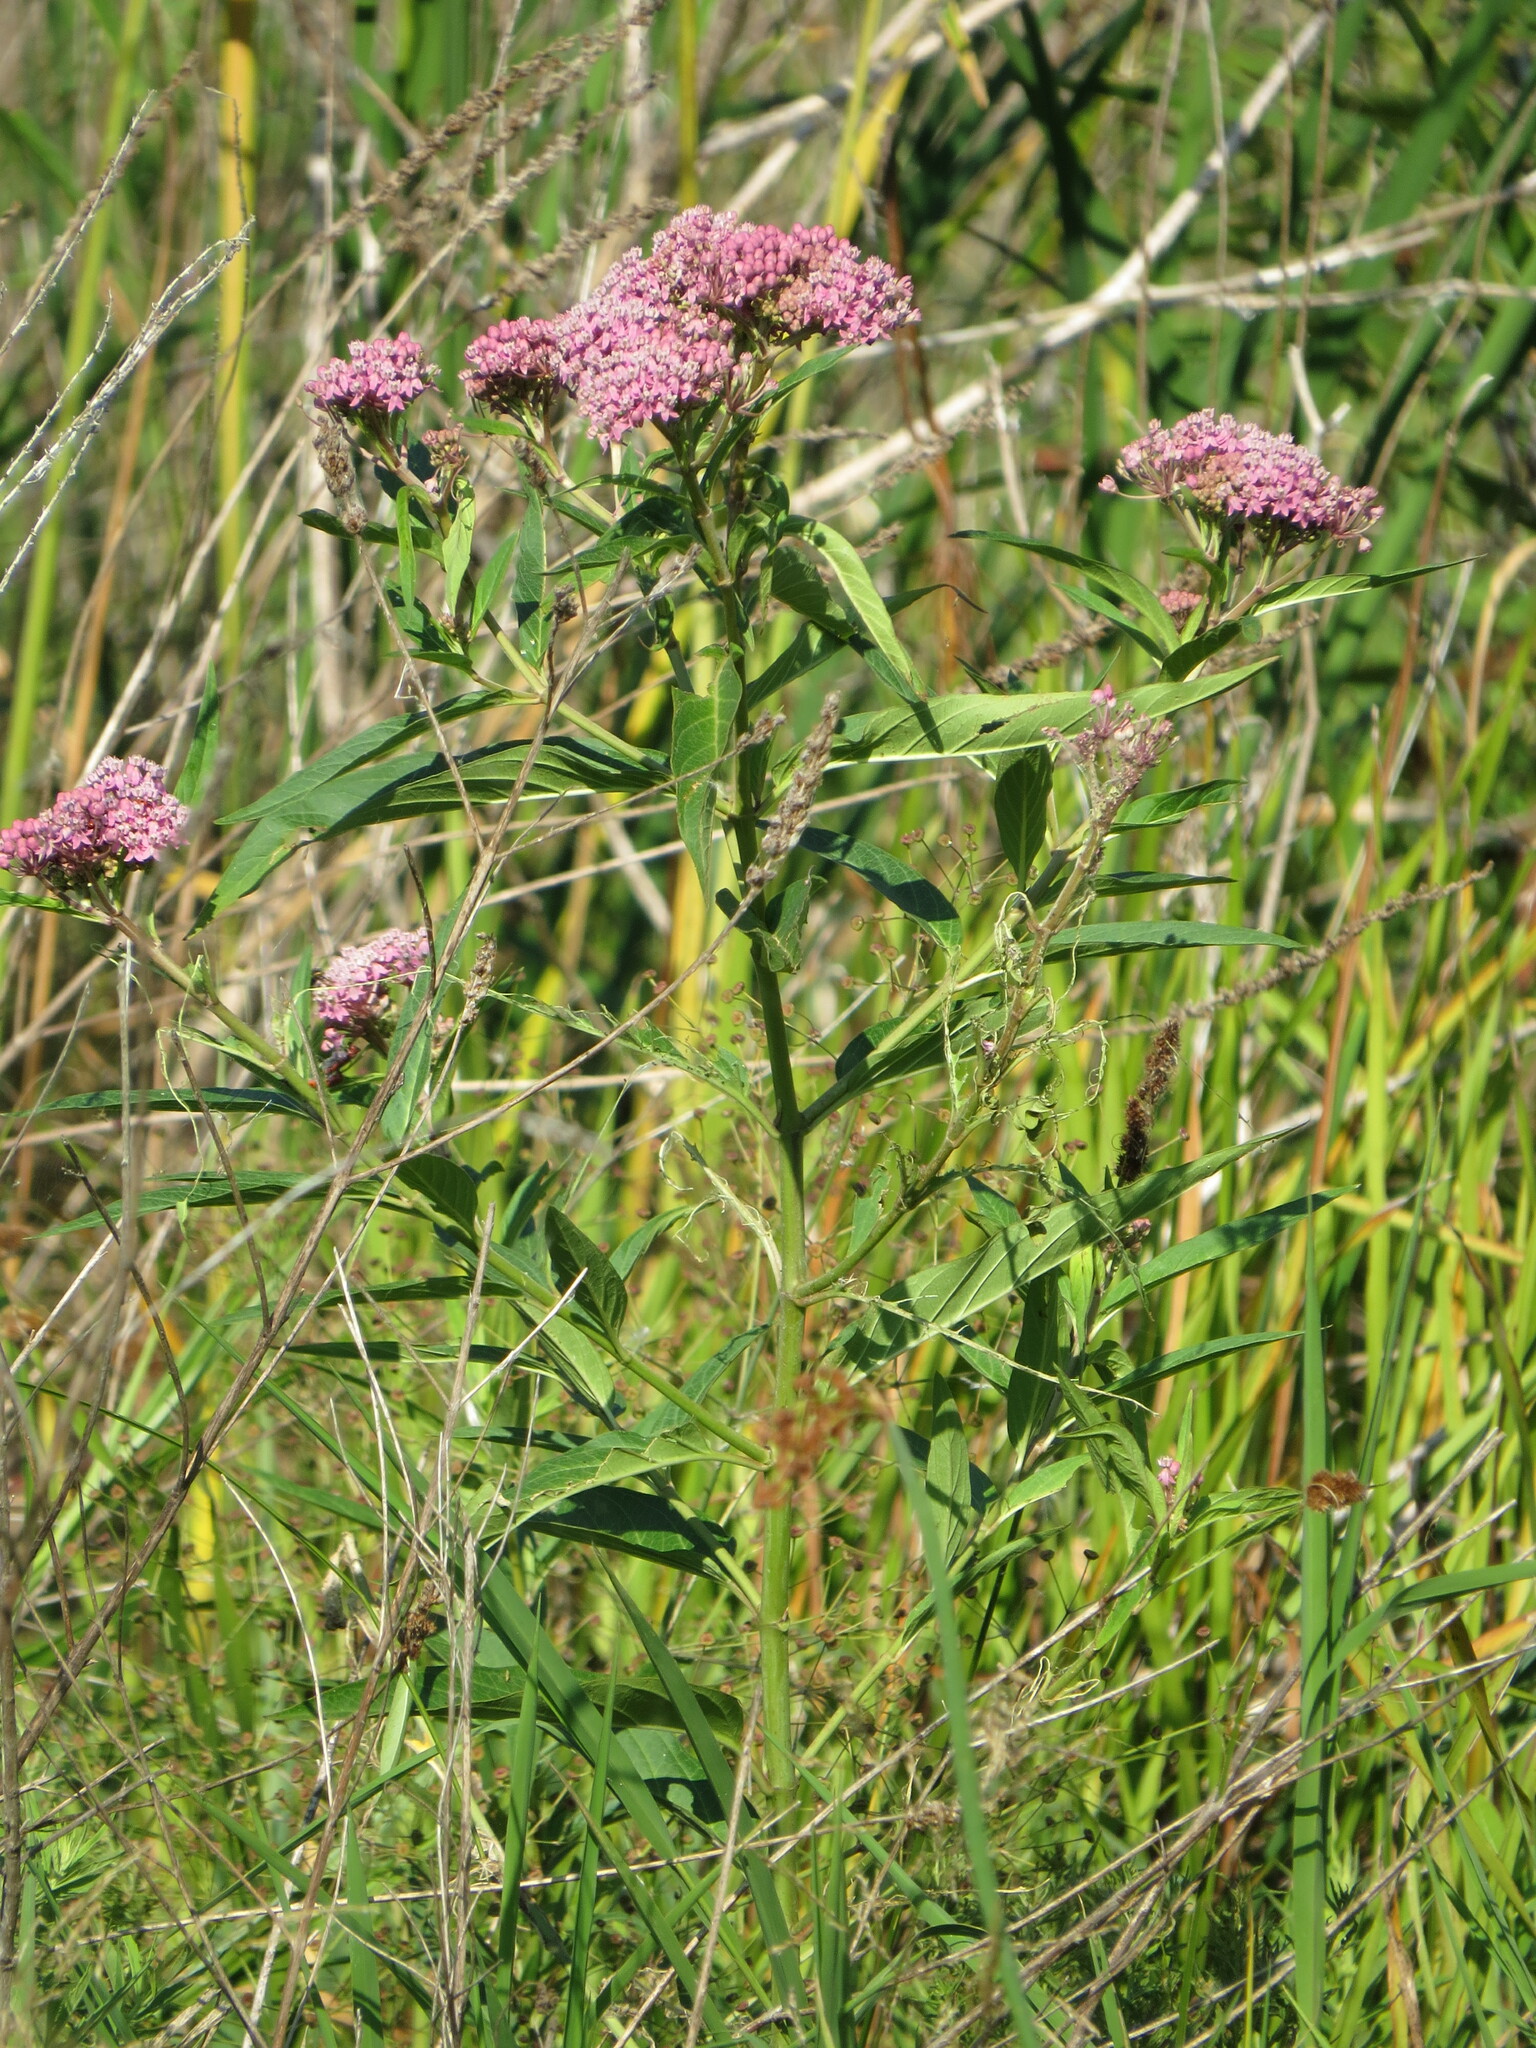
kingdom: Plantae
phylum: Tracheophyta
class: Magnoliopsida
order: Gentianales
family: Apocynaceae
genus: Asclepias
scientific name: Asclepias incarnata
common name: Swamp milkweed
